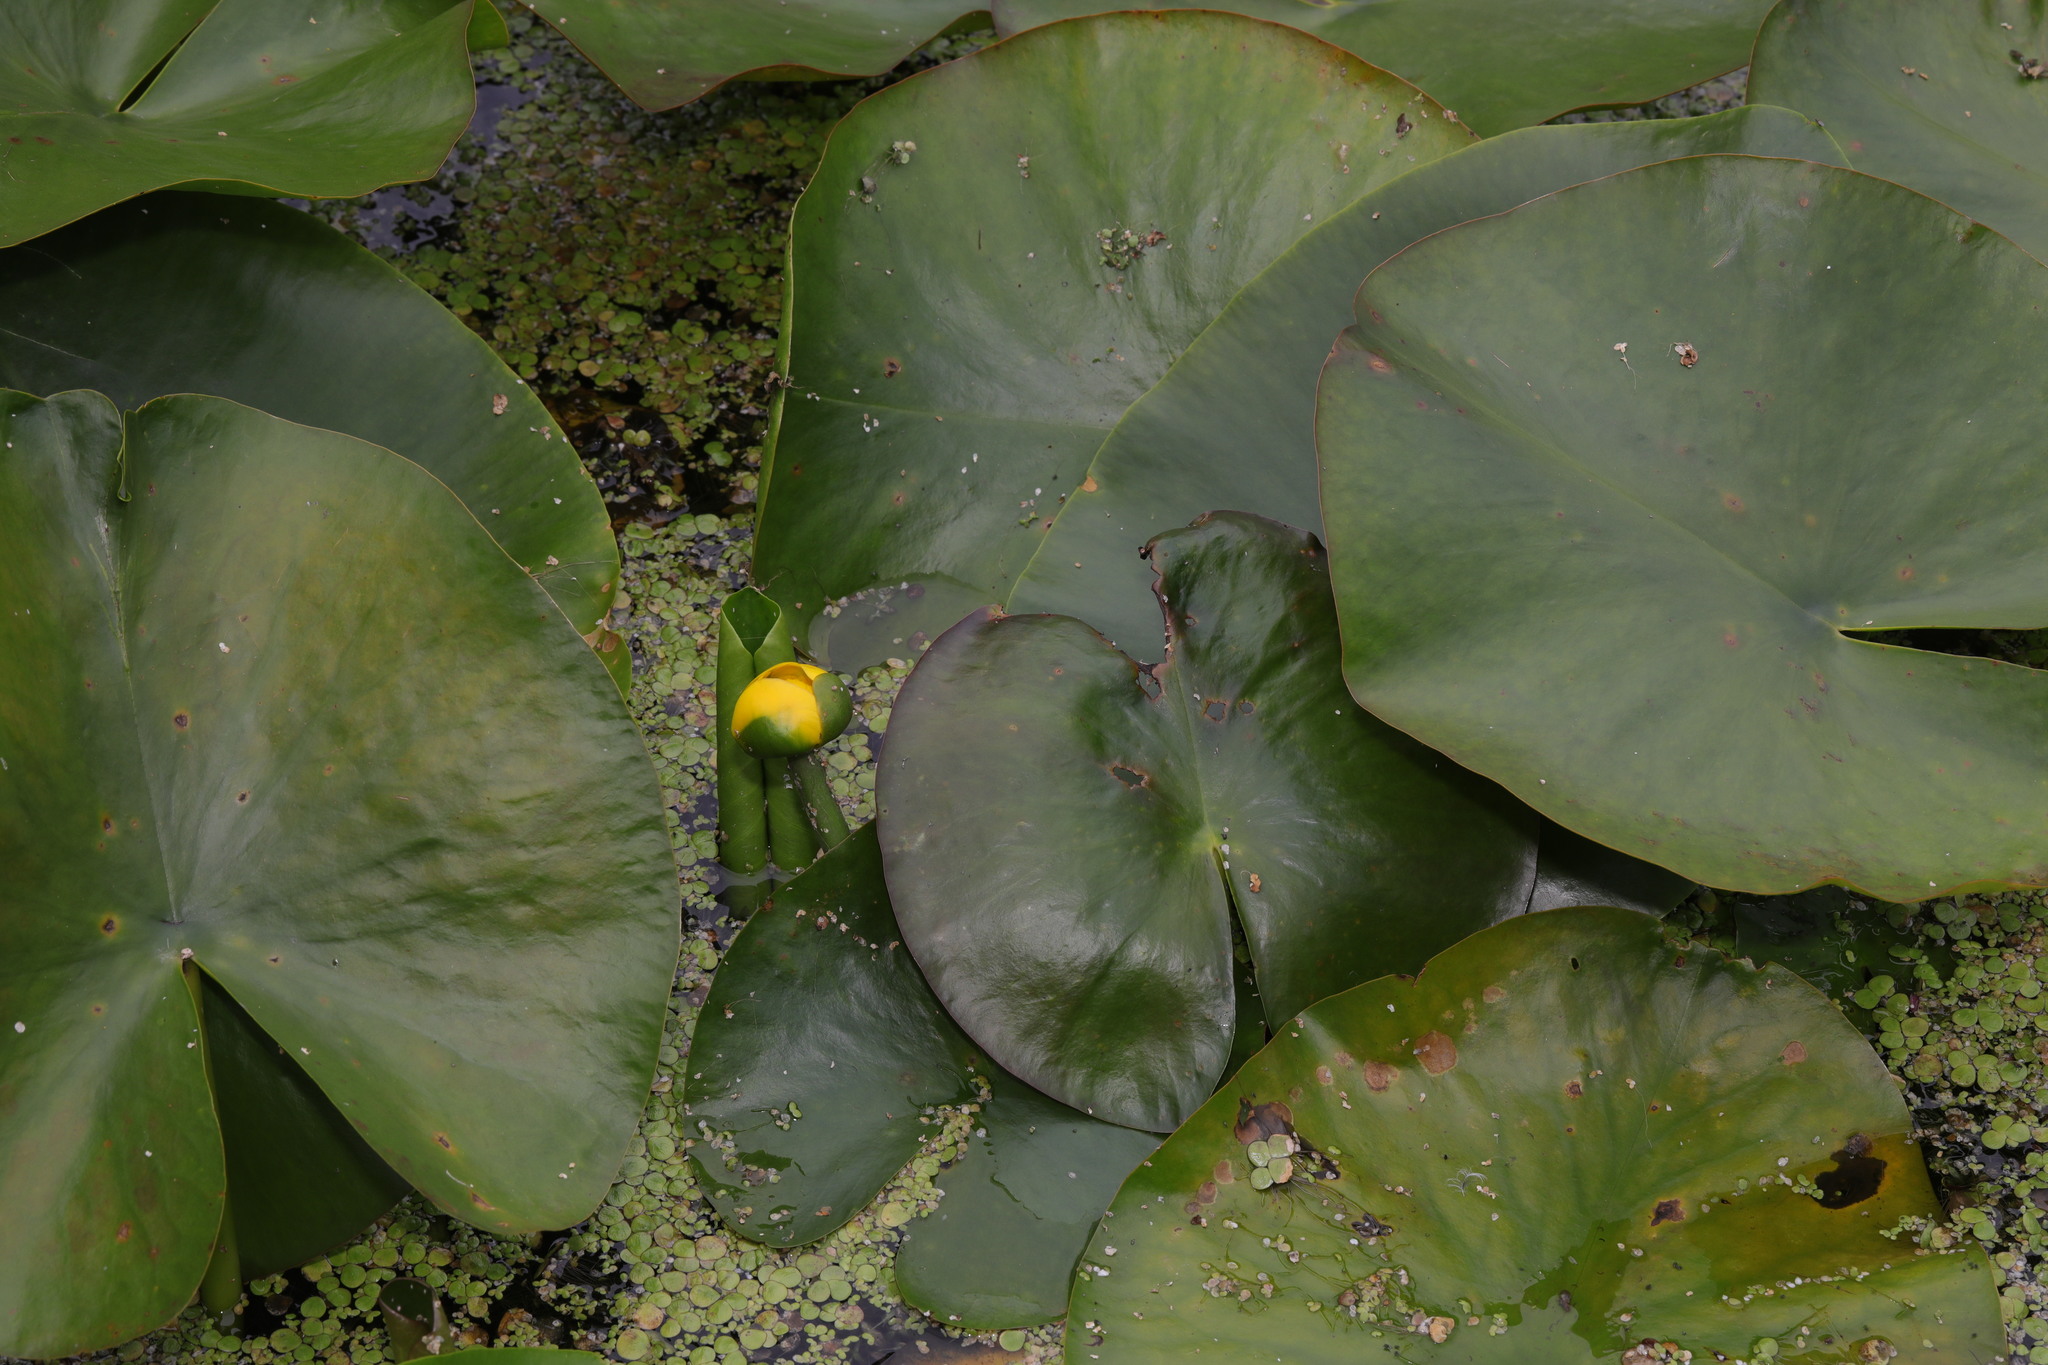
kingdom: Plantae
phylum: Tracheophyta
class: Magnoliopsida
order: Nymphaeales
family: Nymphaeaceae
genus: Nuphar
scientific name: Nuphar lutea
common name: Yellow water-lily
